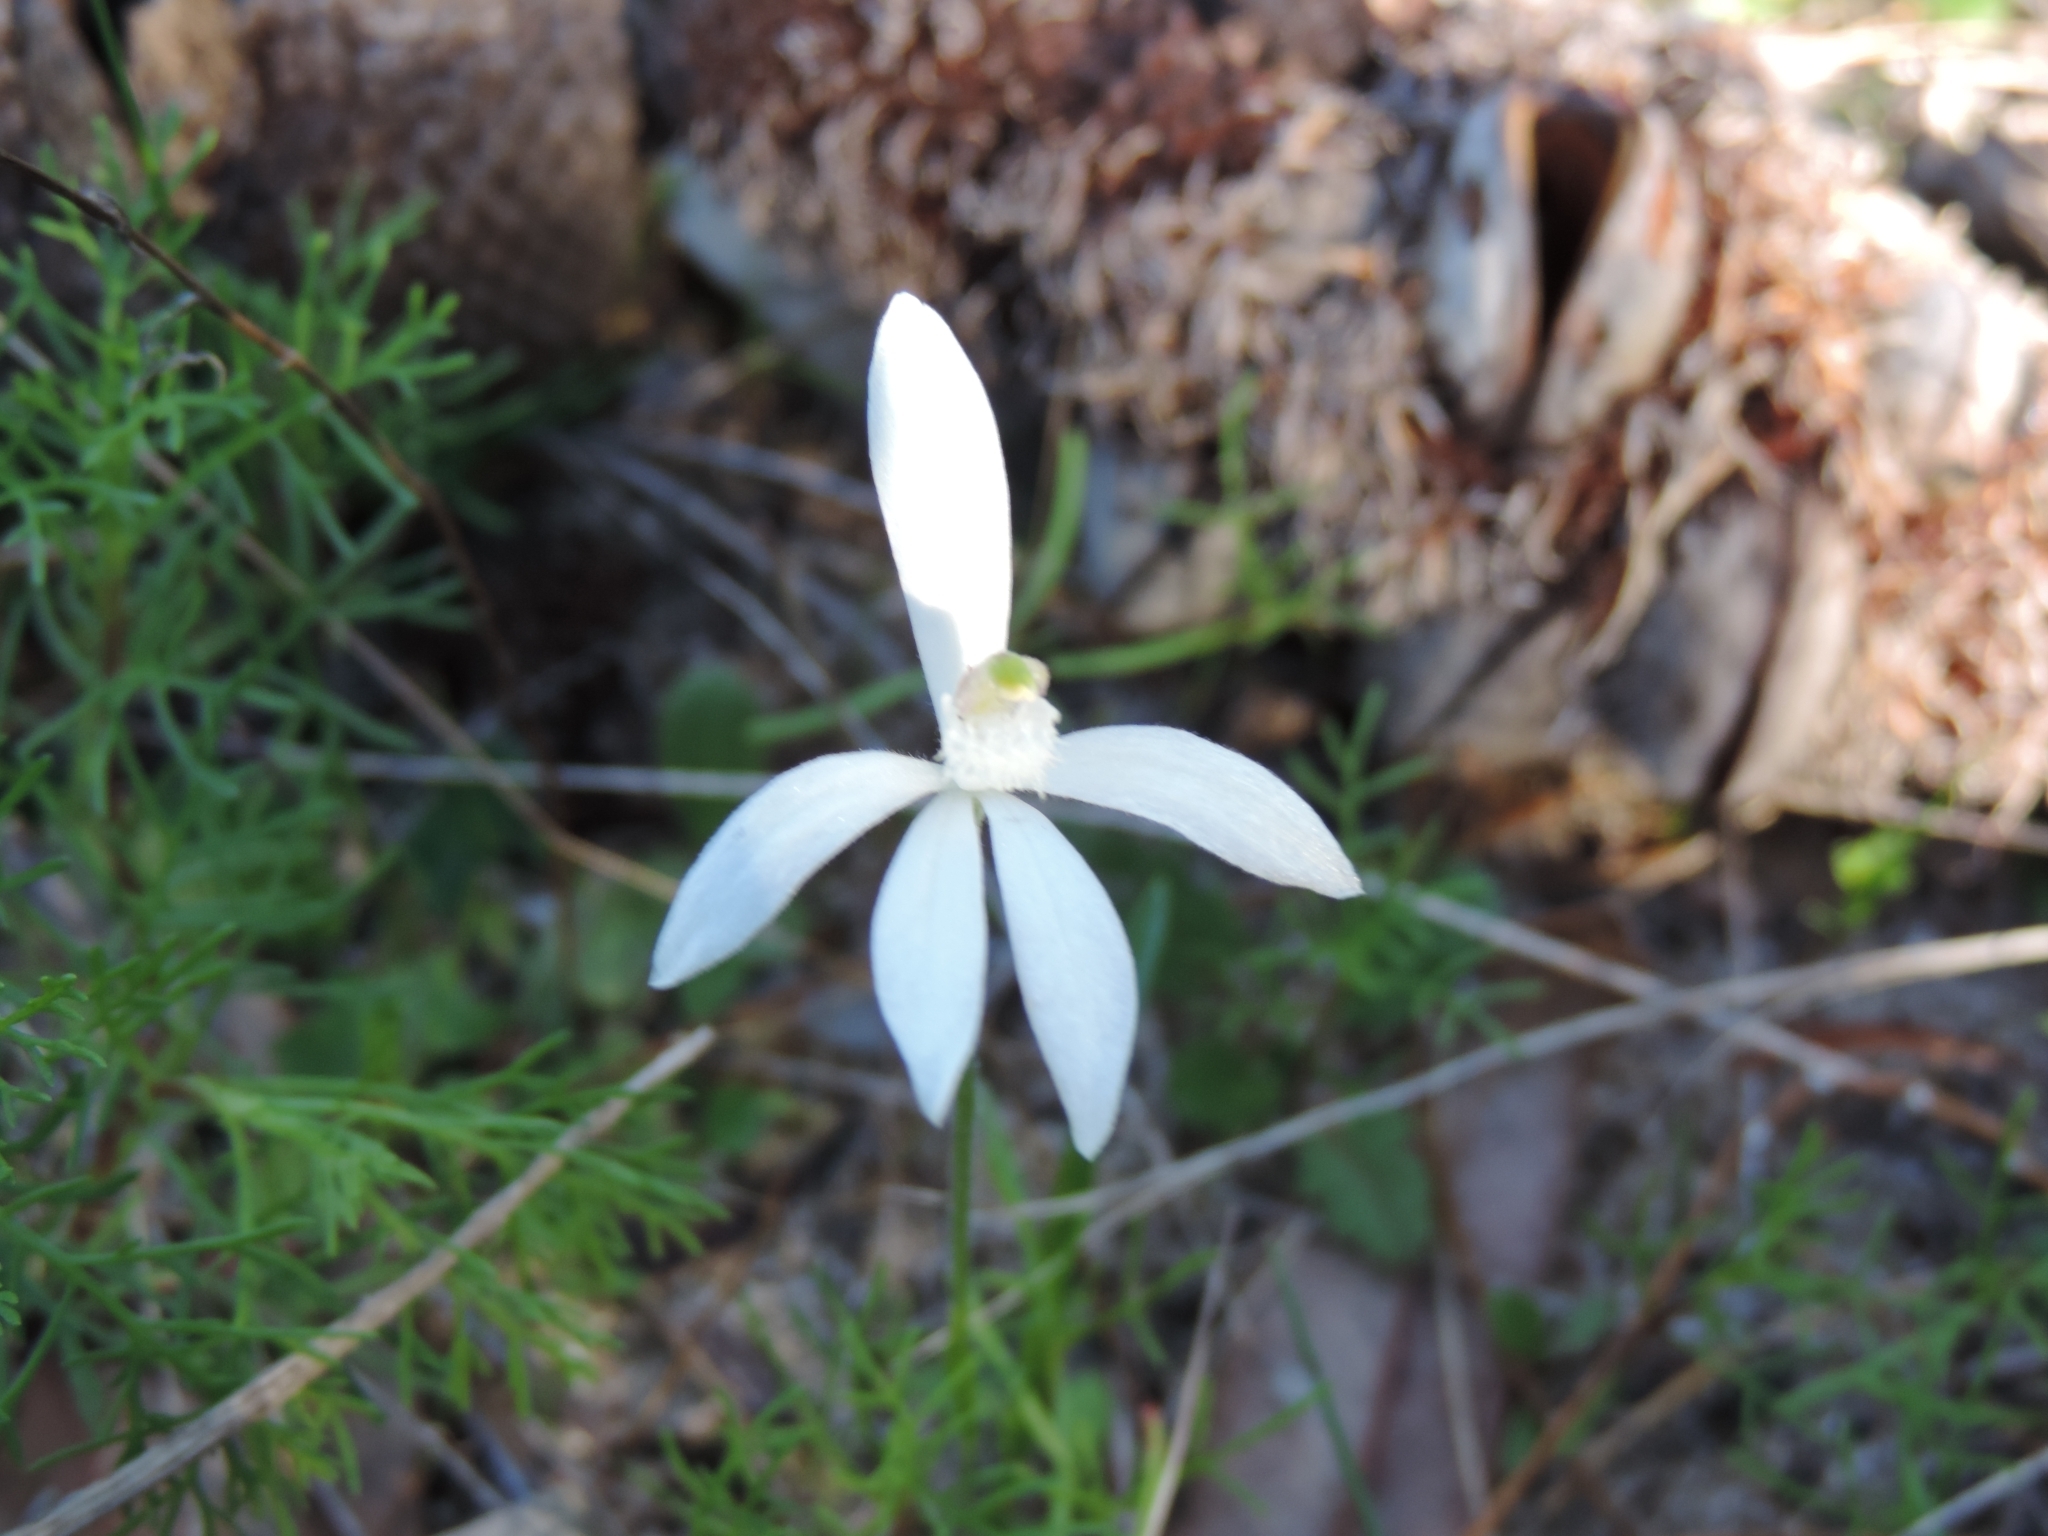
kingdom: Plantae
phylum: Tracheophyta
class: Liliopsida
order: Asparagales
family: Orchidaceae
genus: Pheladenia
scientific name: Pheladenia deformis
